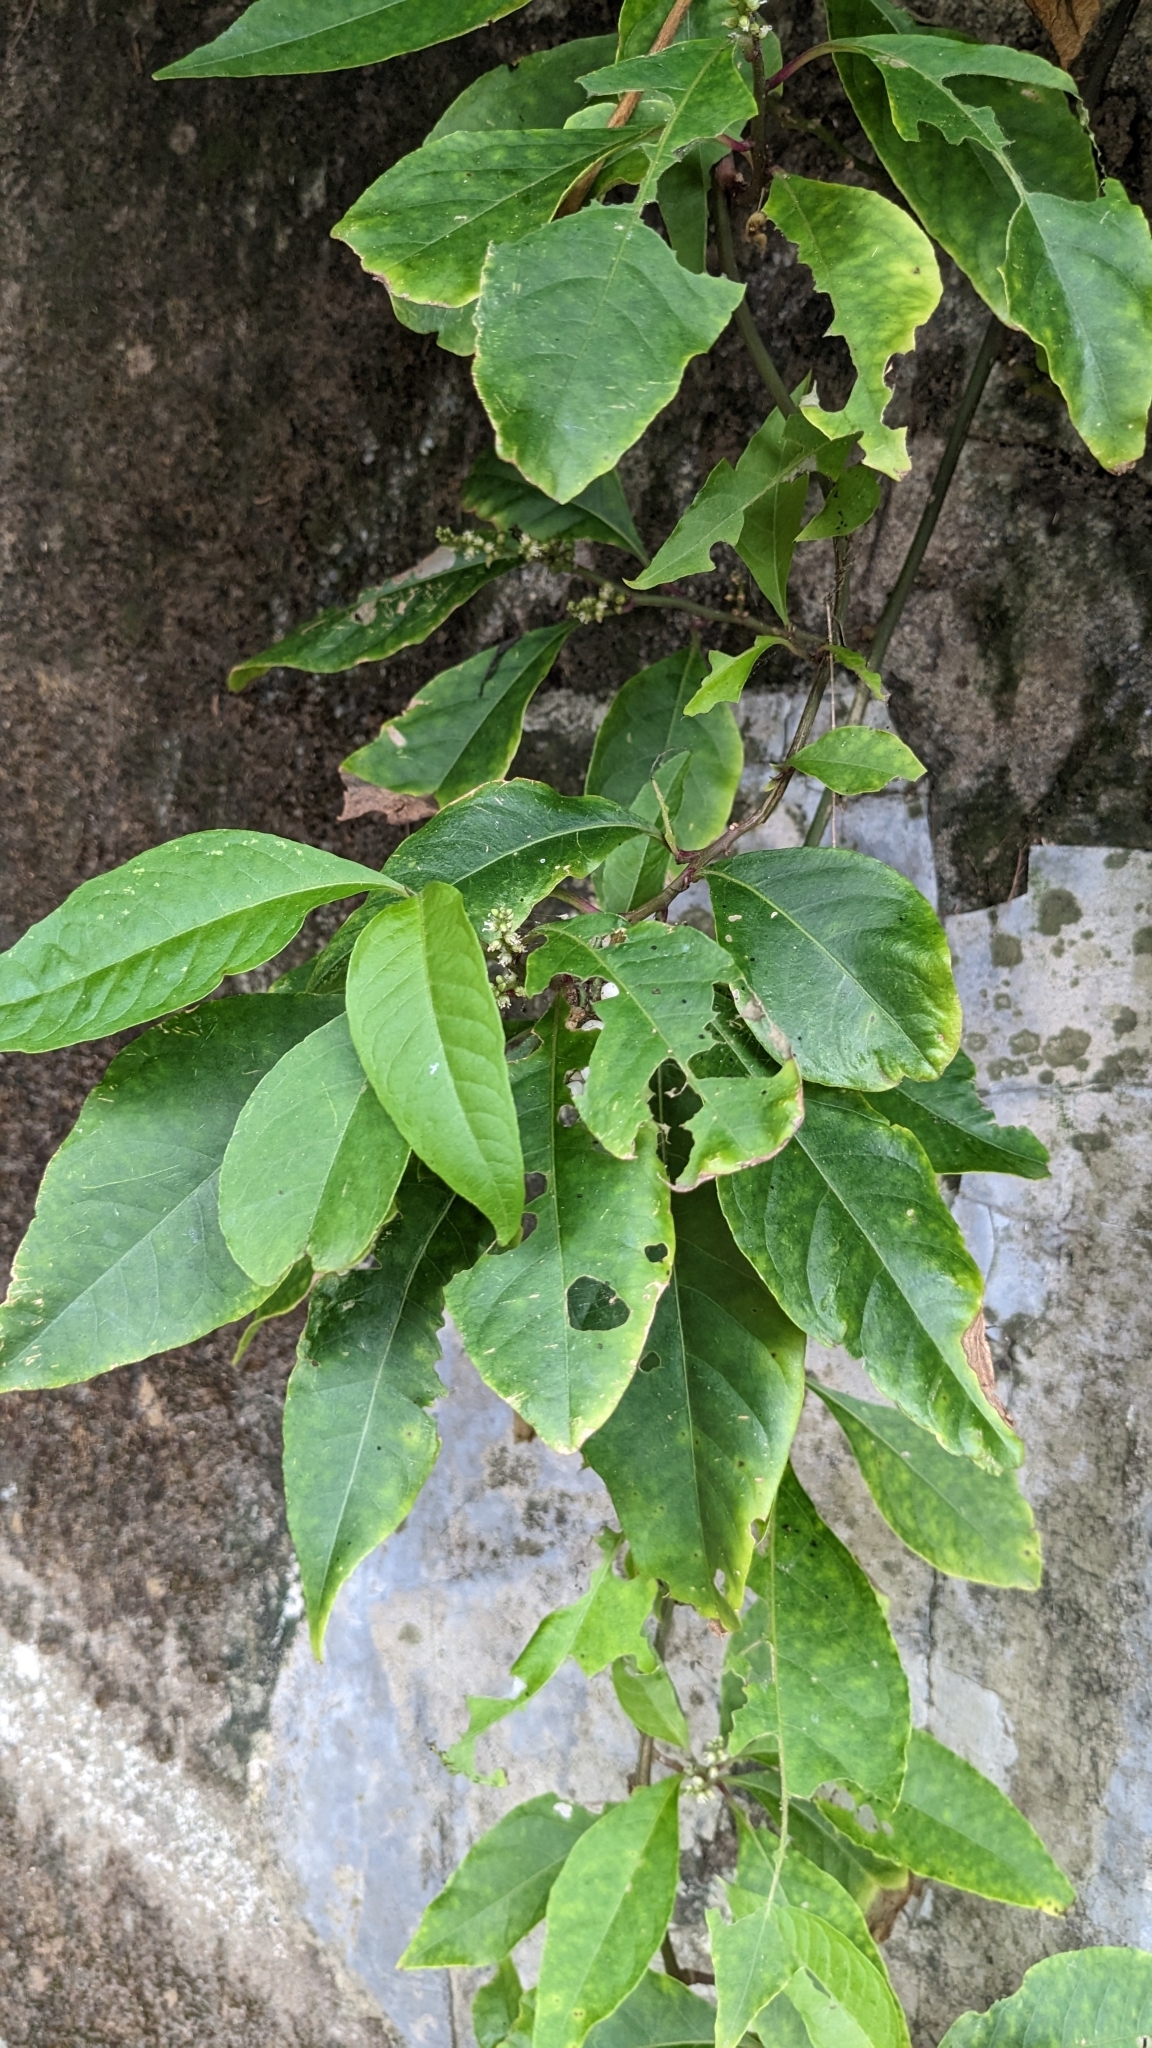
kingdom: Plantae
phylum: Tracheophyta
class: Magnoliopsida
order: Caryophyllales
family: Amaranthaceae
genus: Deeringia
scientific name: Deeringia polysperma
